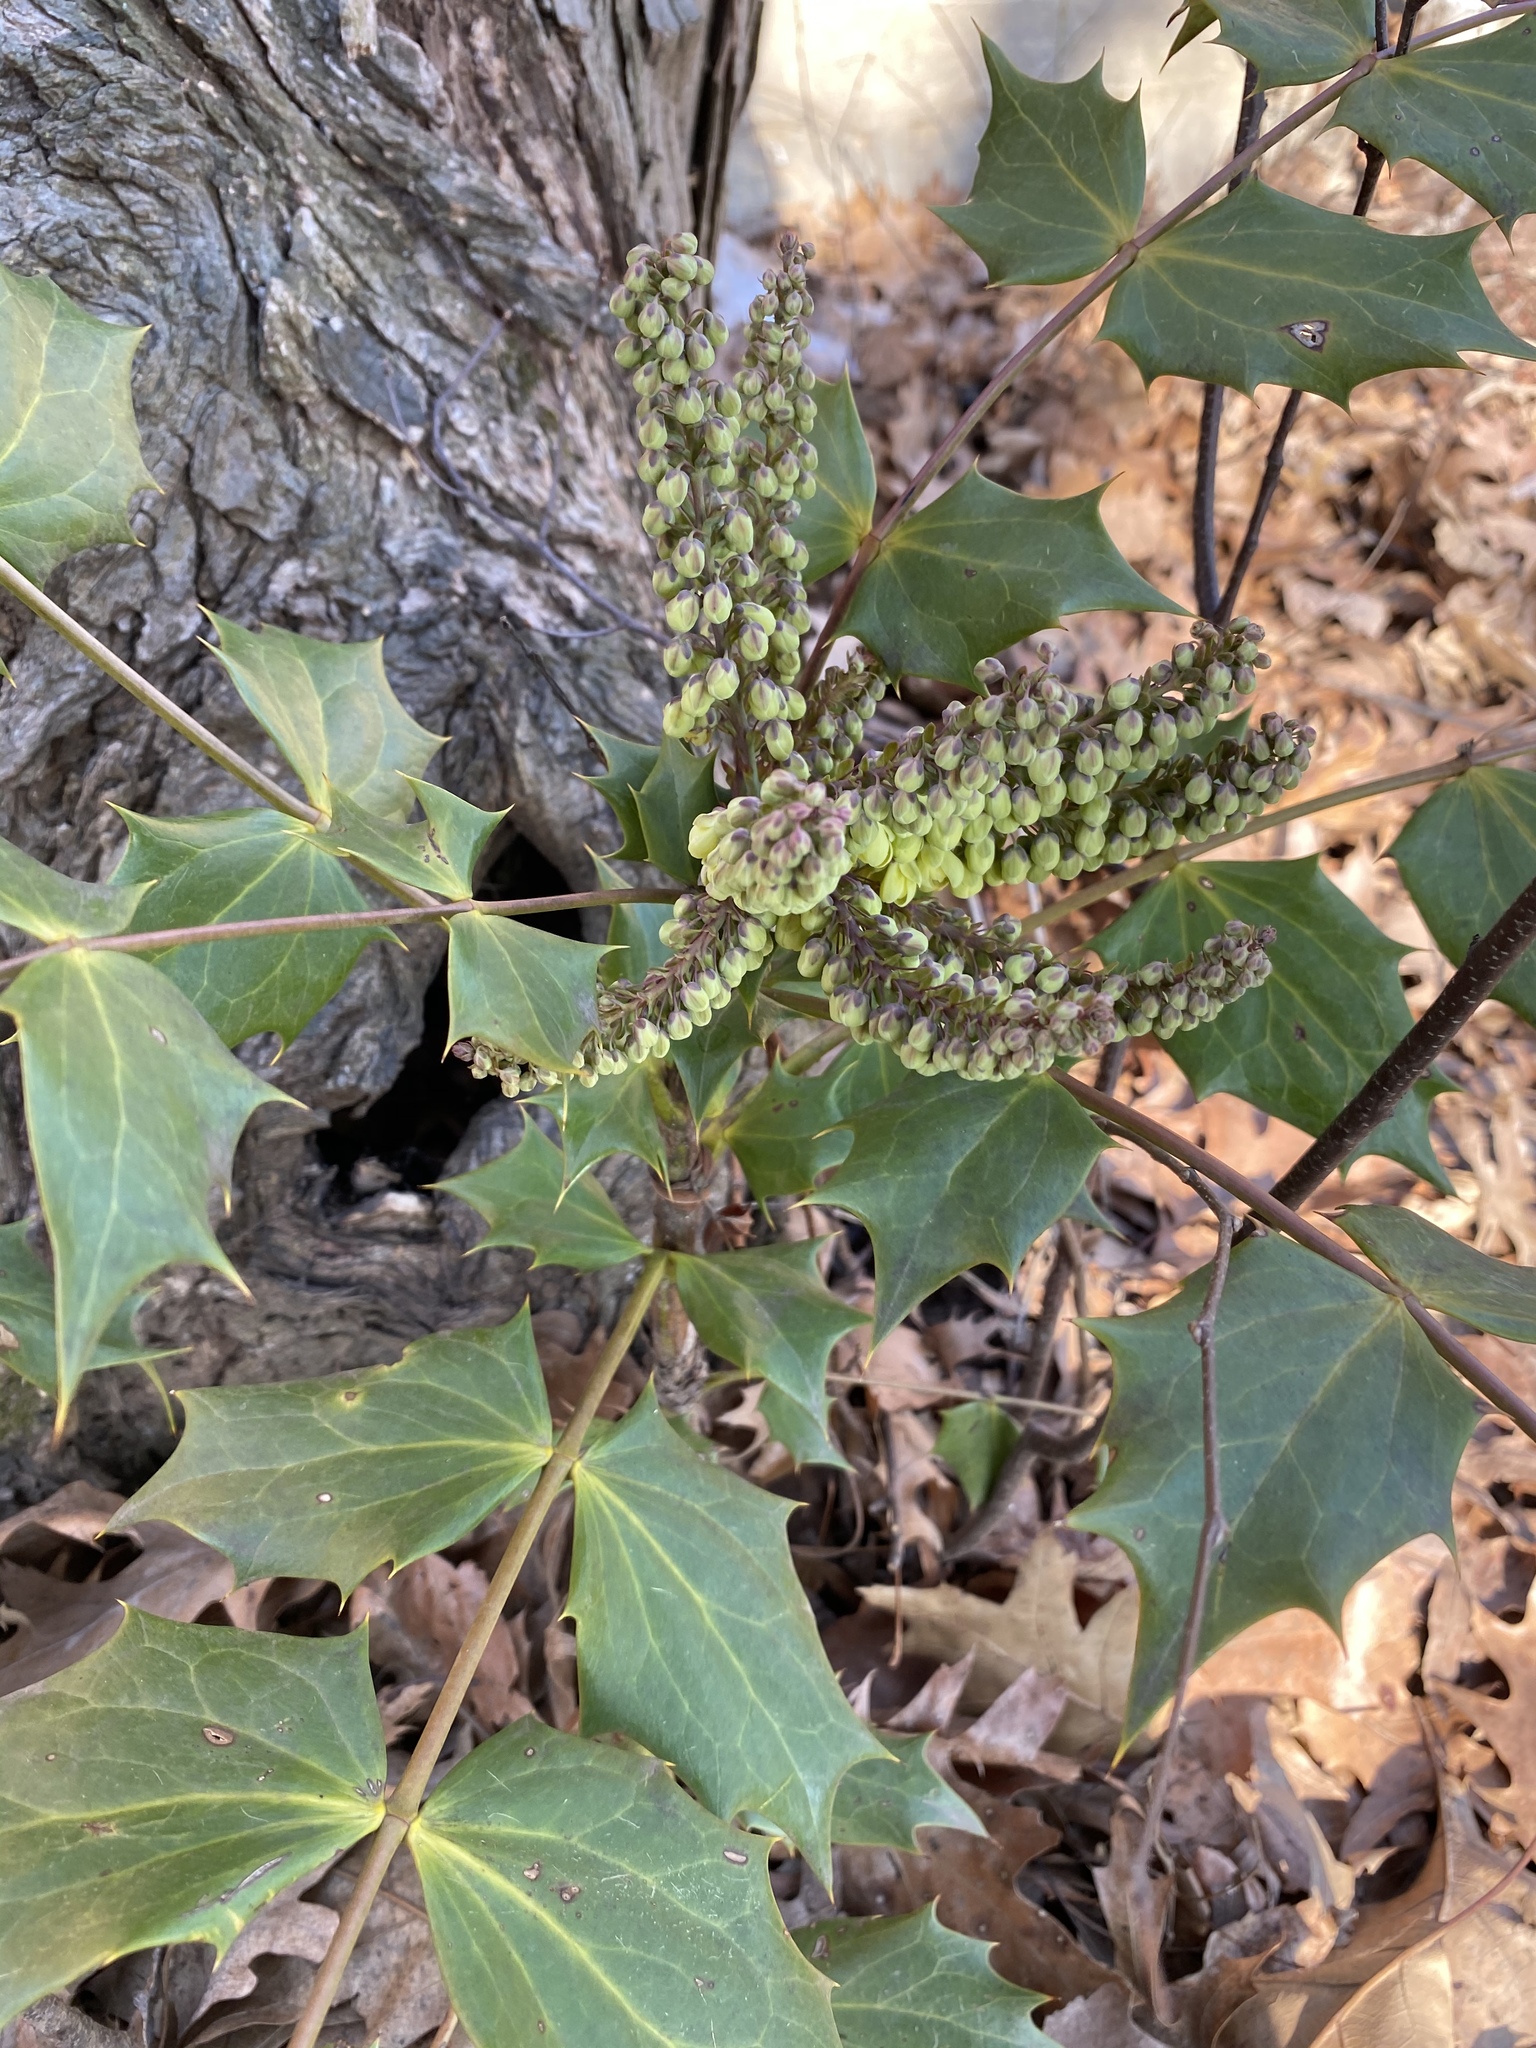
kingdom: Plantae
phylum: Tracheophyta
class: Magnoliopsida
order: Ranunculales
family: Berberidaceae
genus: Mahonia
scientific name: Mahonia bealei
